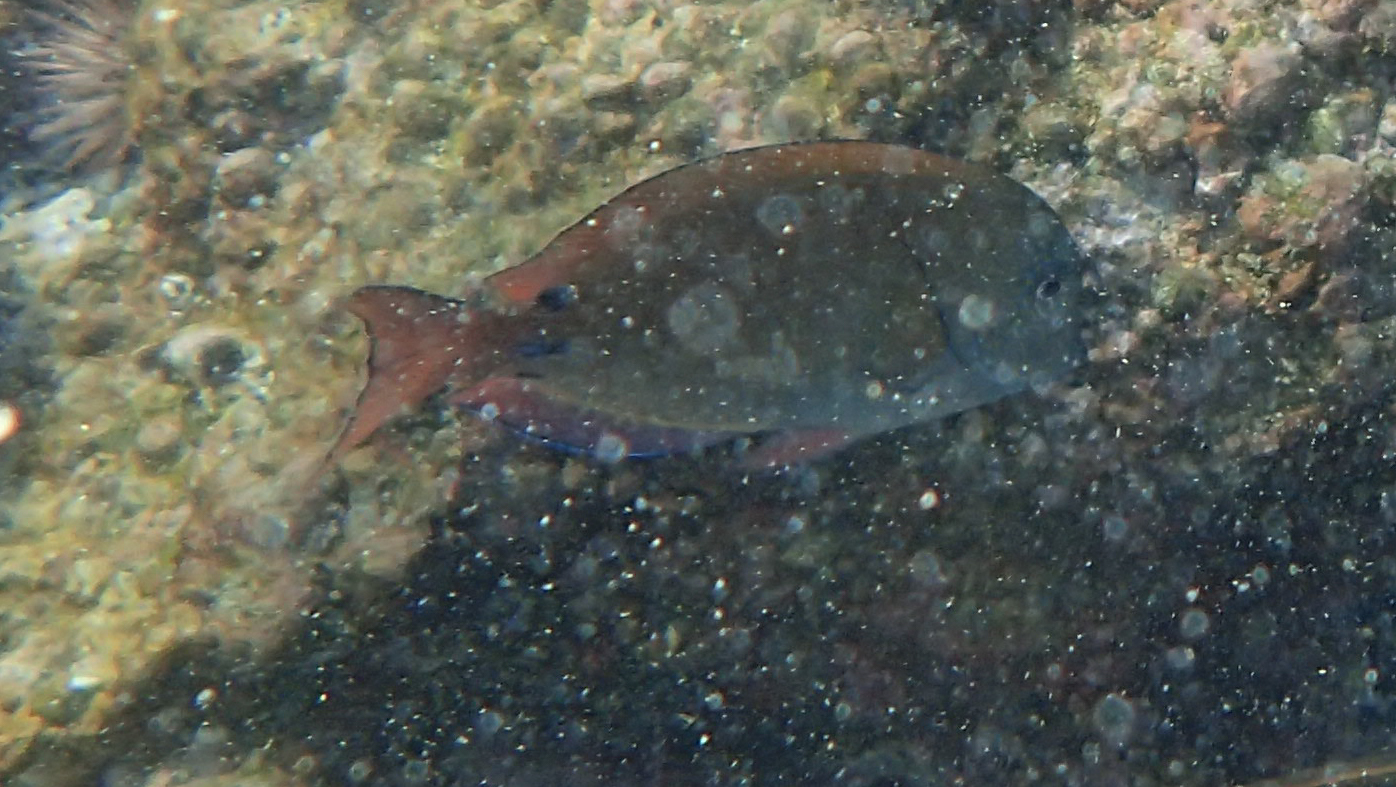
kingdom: Animalia
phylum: Chordata
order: Perciformes
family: Acanthuridae
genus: Acanthurus
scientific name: Acanthurus nigrofuscus
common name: Blackspot surgeonfish
